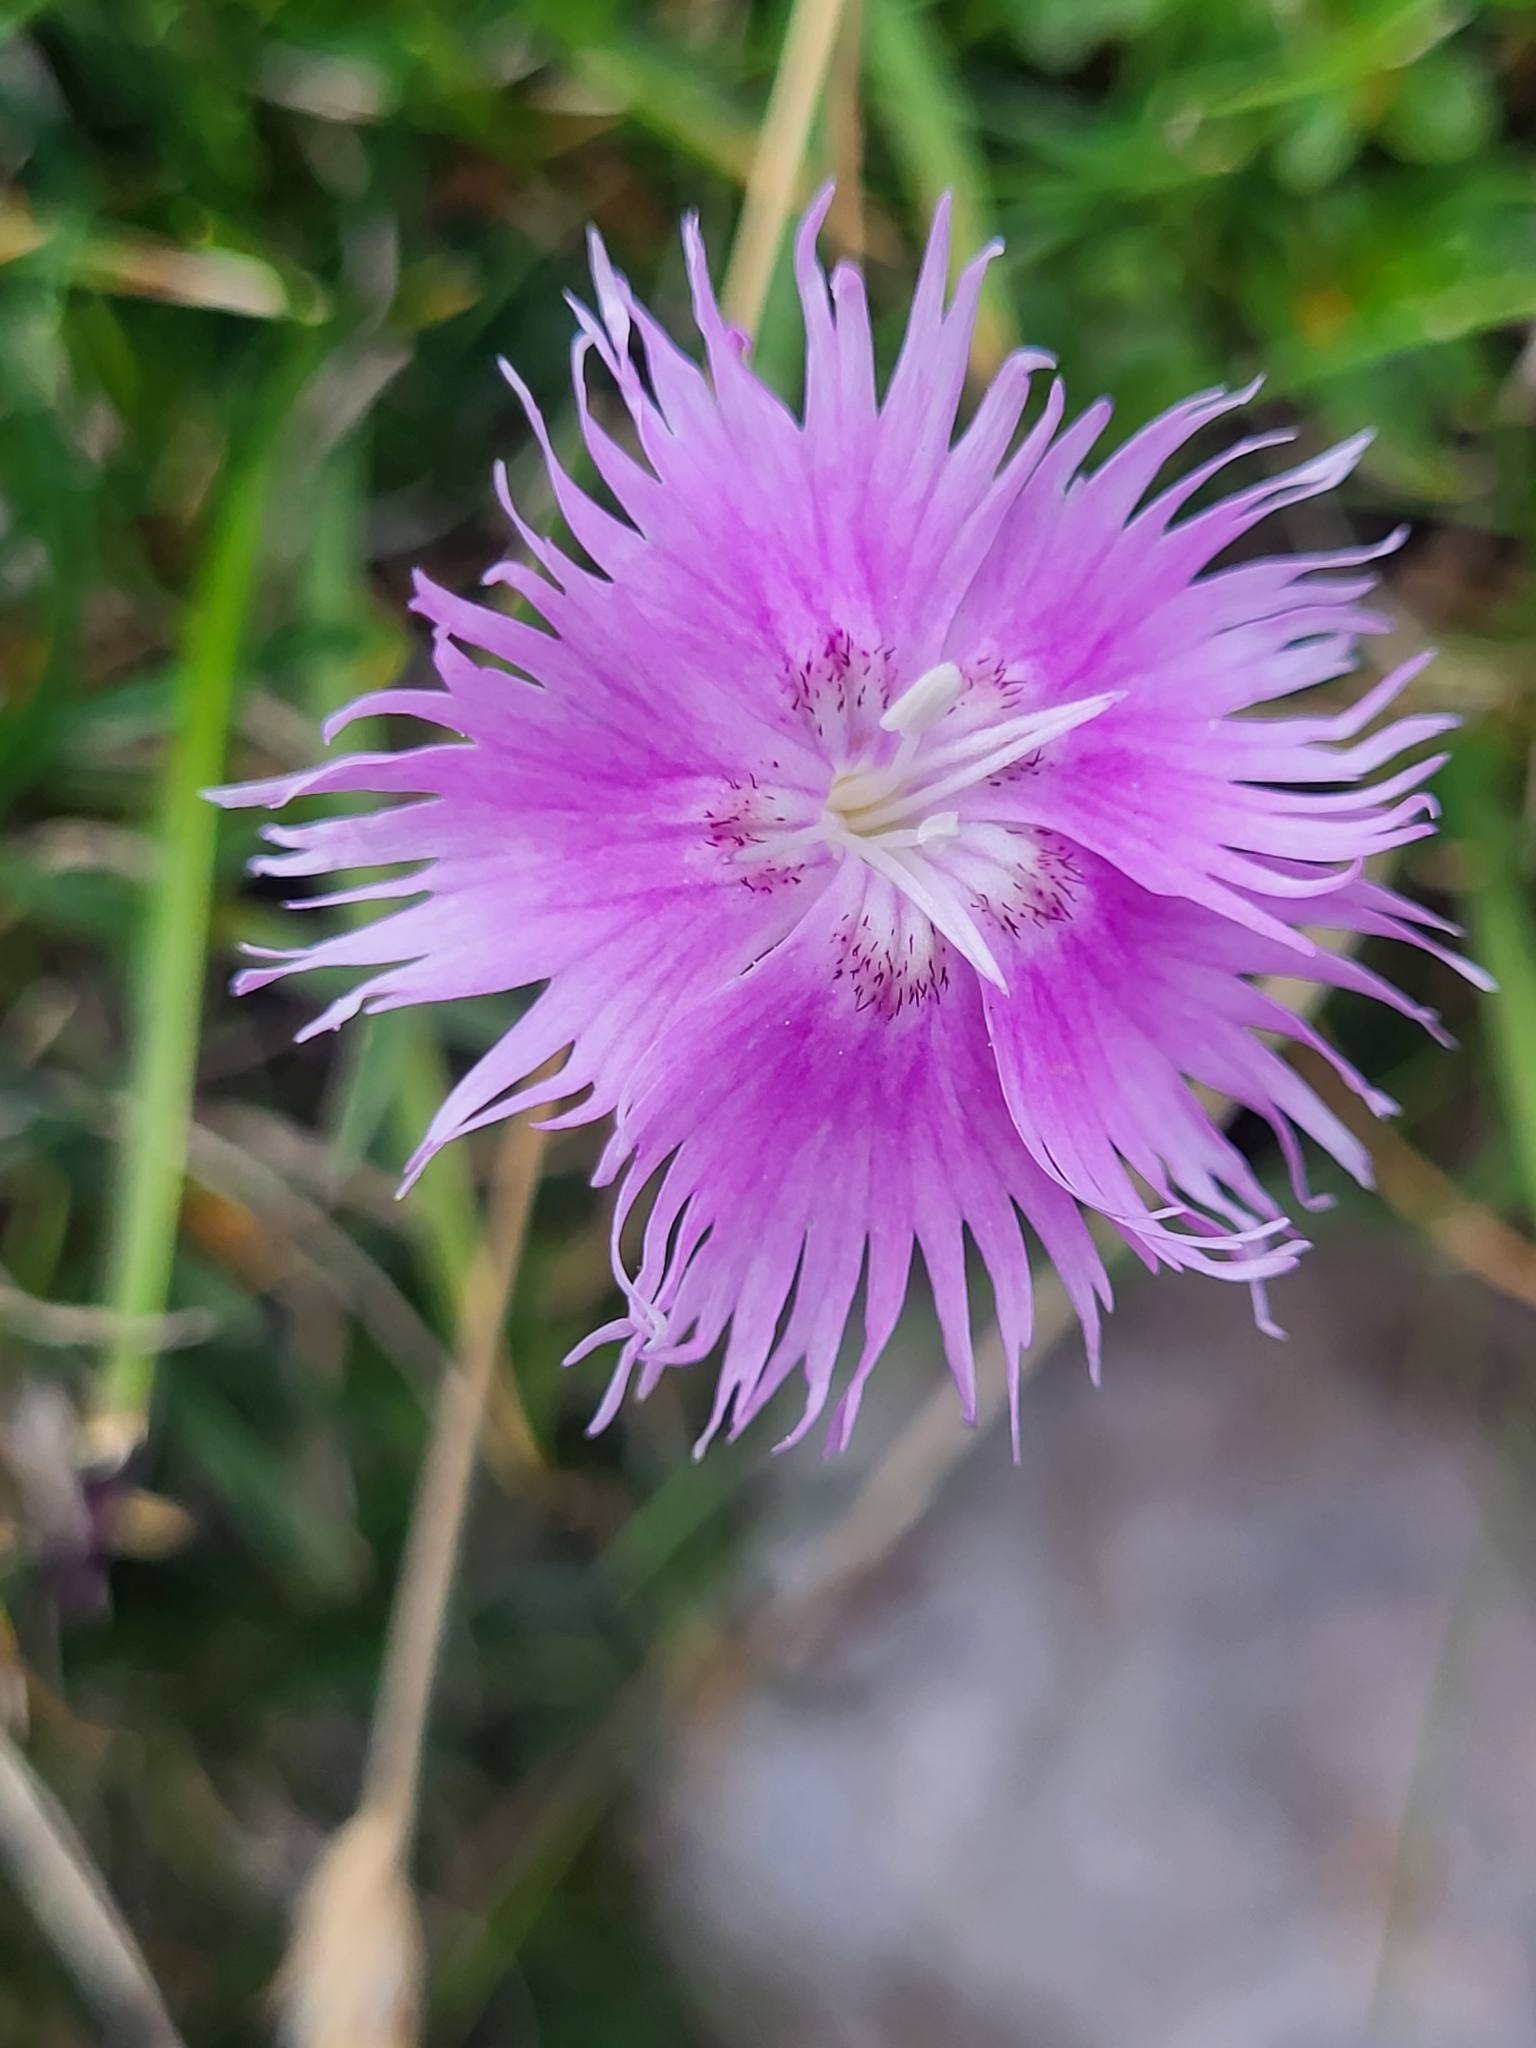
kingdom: Plantae
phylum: Tracheophyta
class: Magnoliopsida
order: Caryophyllales
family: Caryophyllaceae
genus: Dianthus
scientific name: Dianthus sternbergii
